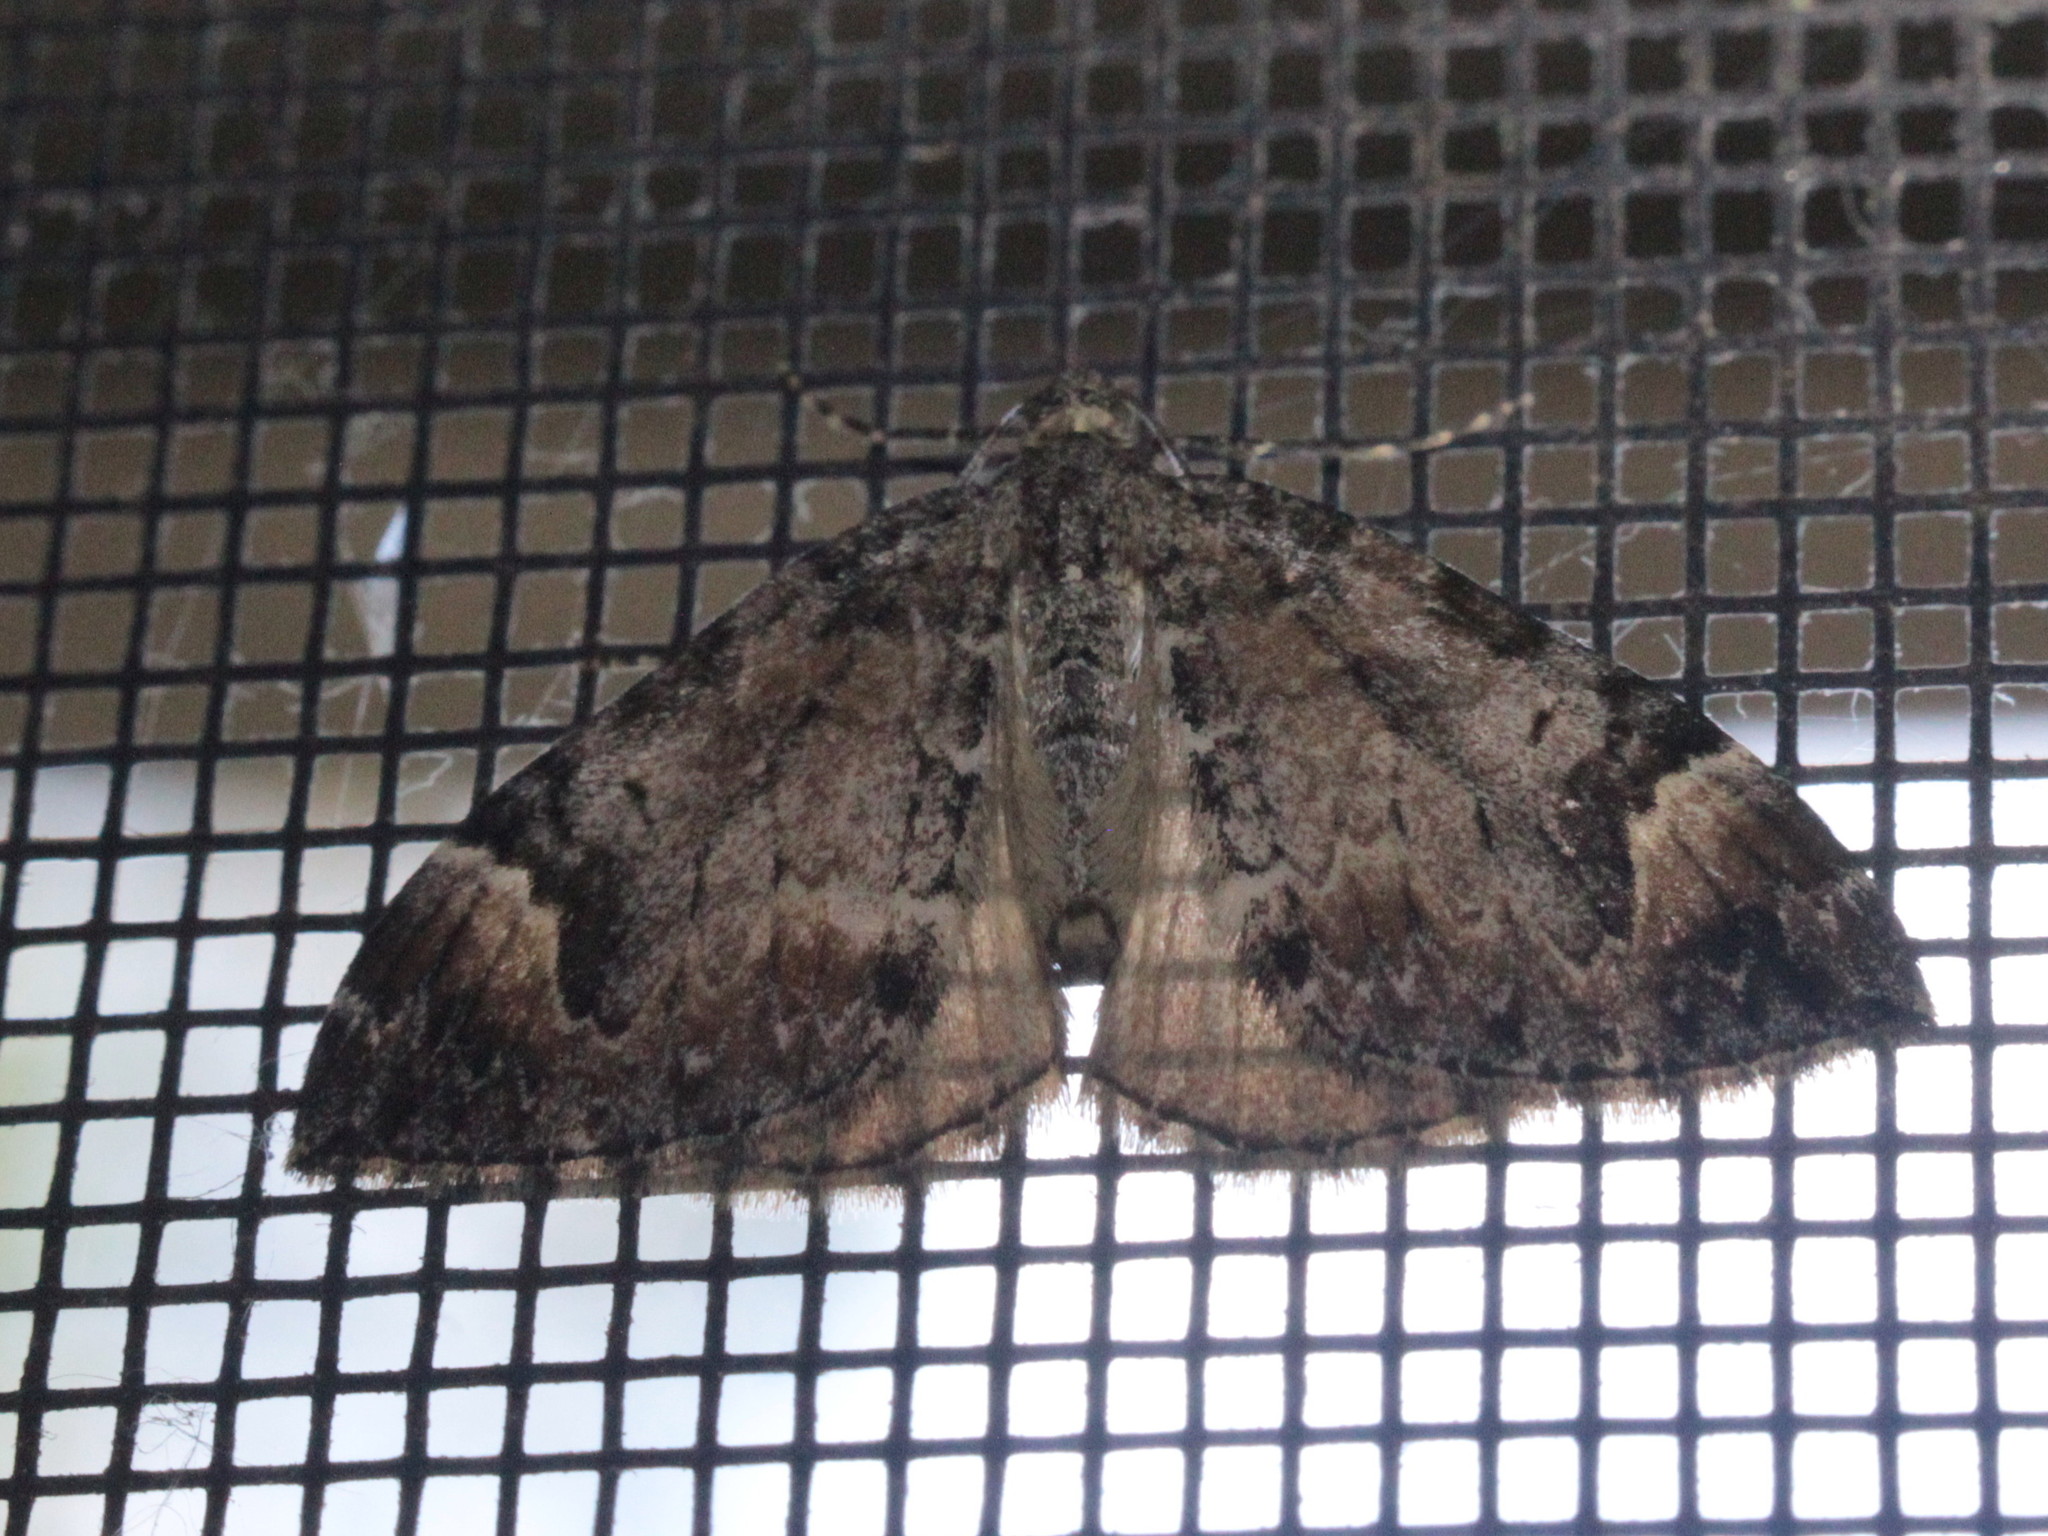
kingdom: Animalia
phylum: Arthropoda
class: Insecta
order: Lepidoptera
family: Geometridae
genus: Dysstroma
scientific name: Dysstroma citrata
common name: Dark marbled carpet
